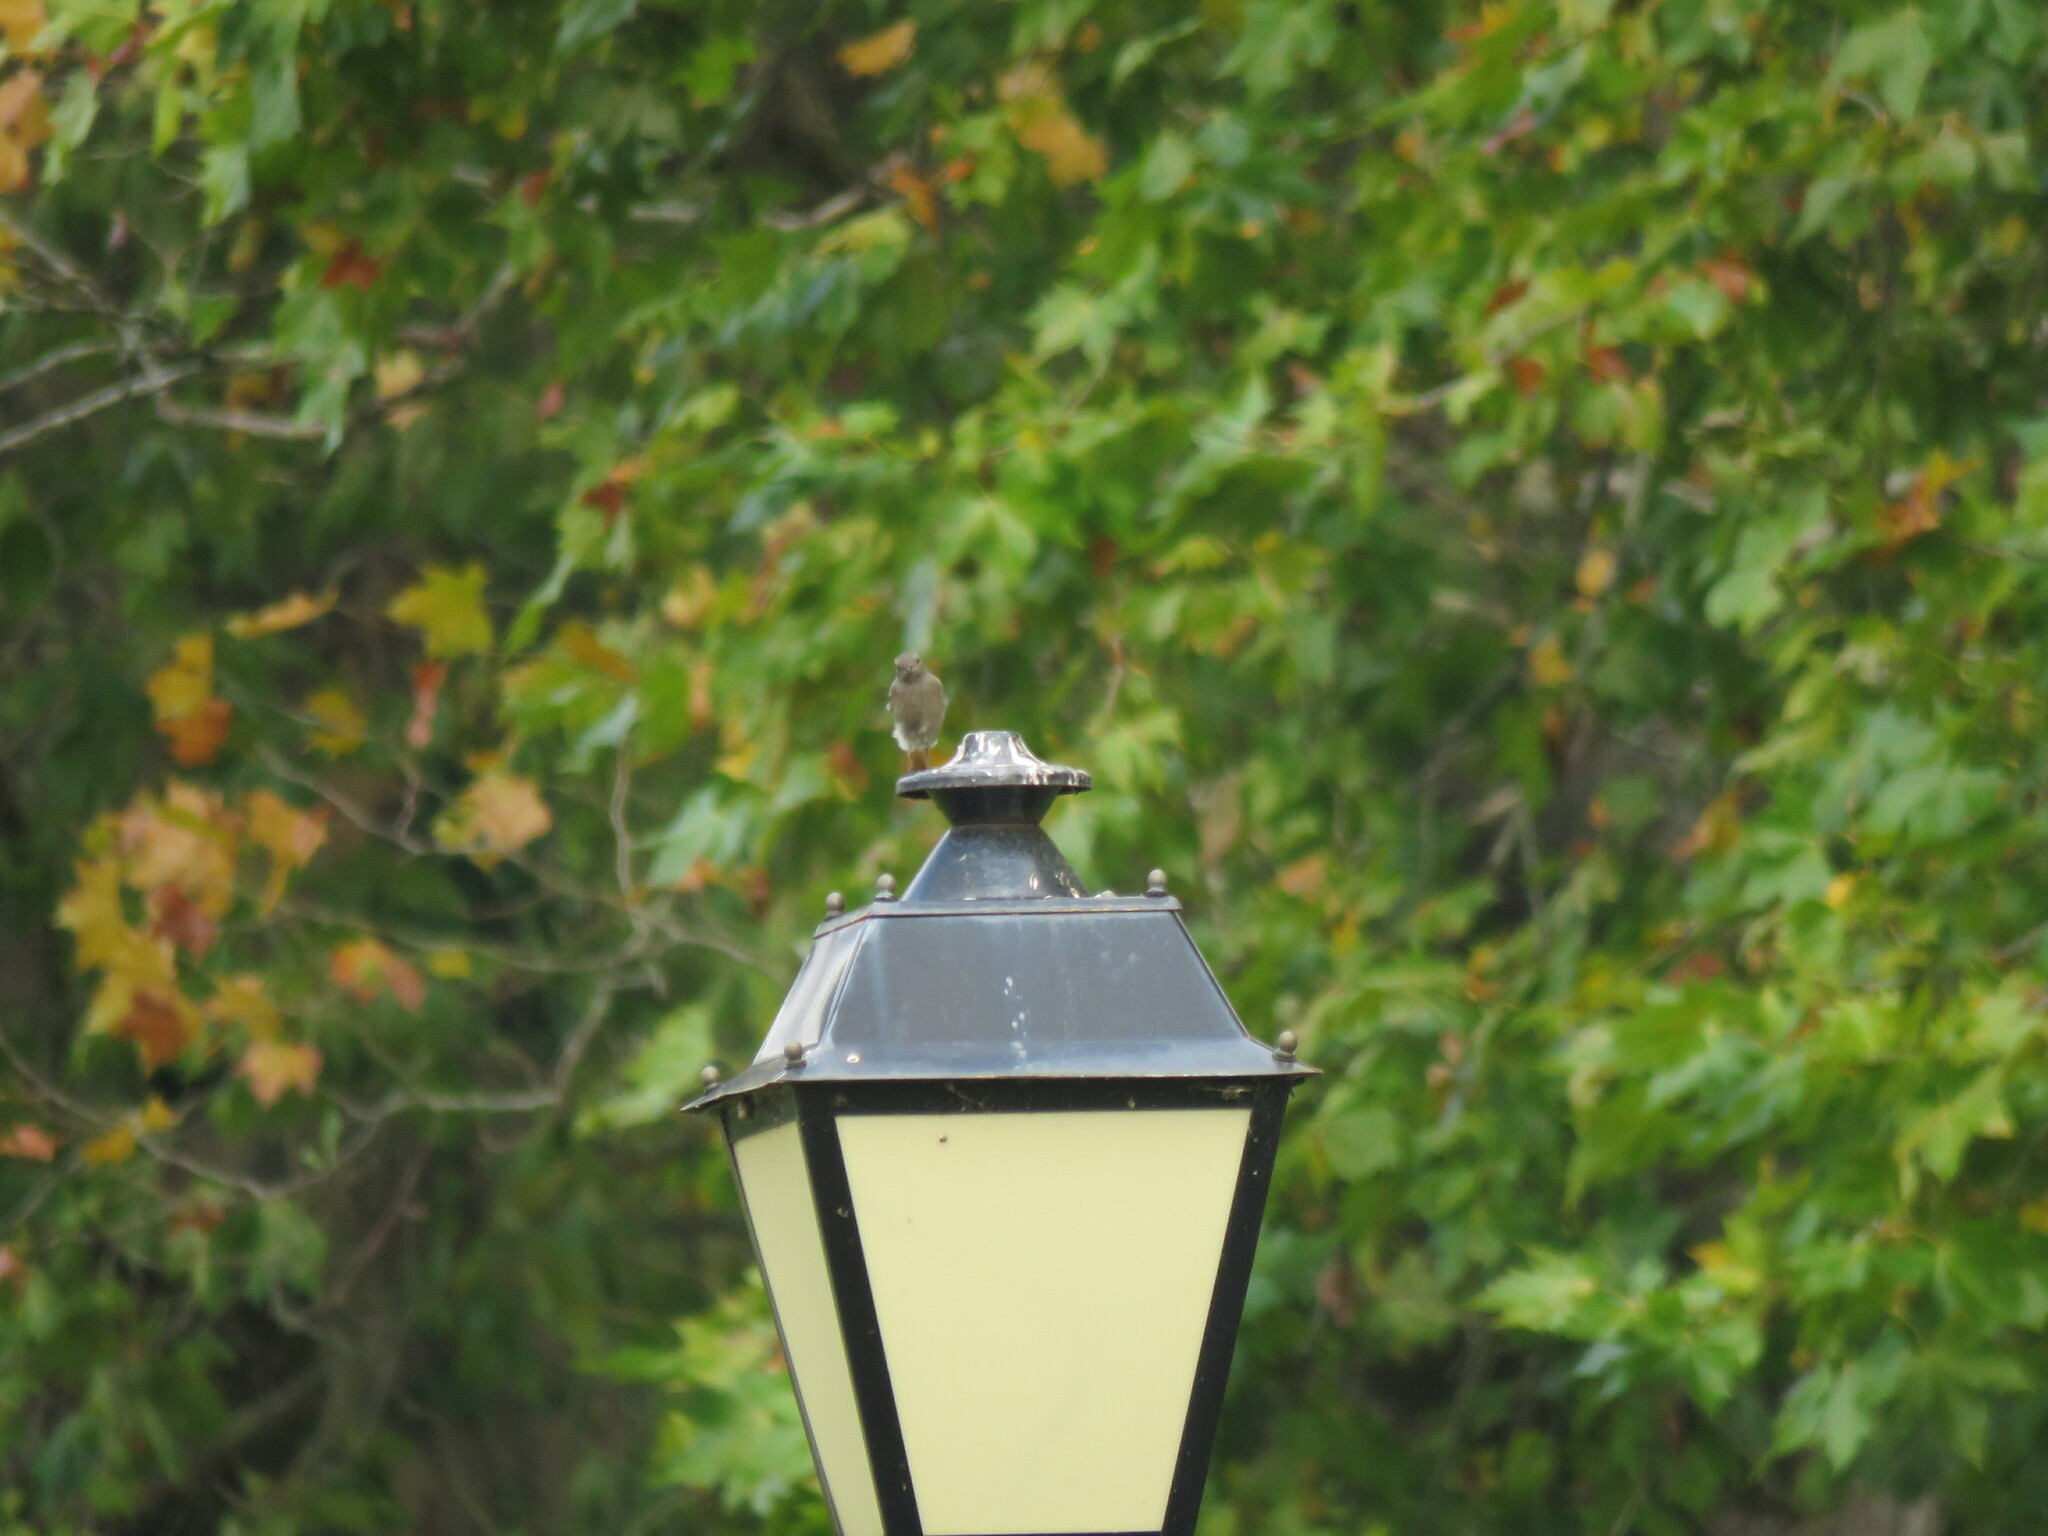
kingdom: Animalia
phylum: Chordata
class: Aves
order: Passeriformes
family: Muscicapidae
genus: Phoenicurus
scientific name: Phoenicurus ochruros
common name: Black redstart
